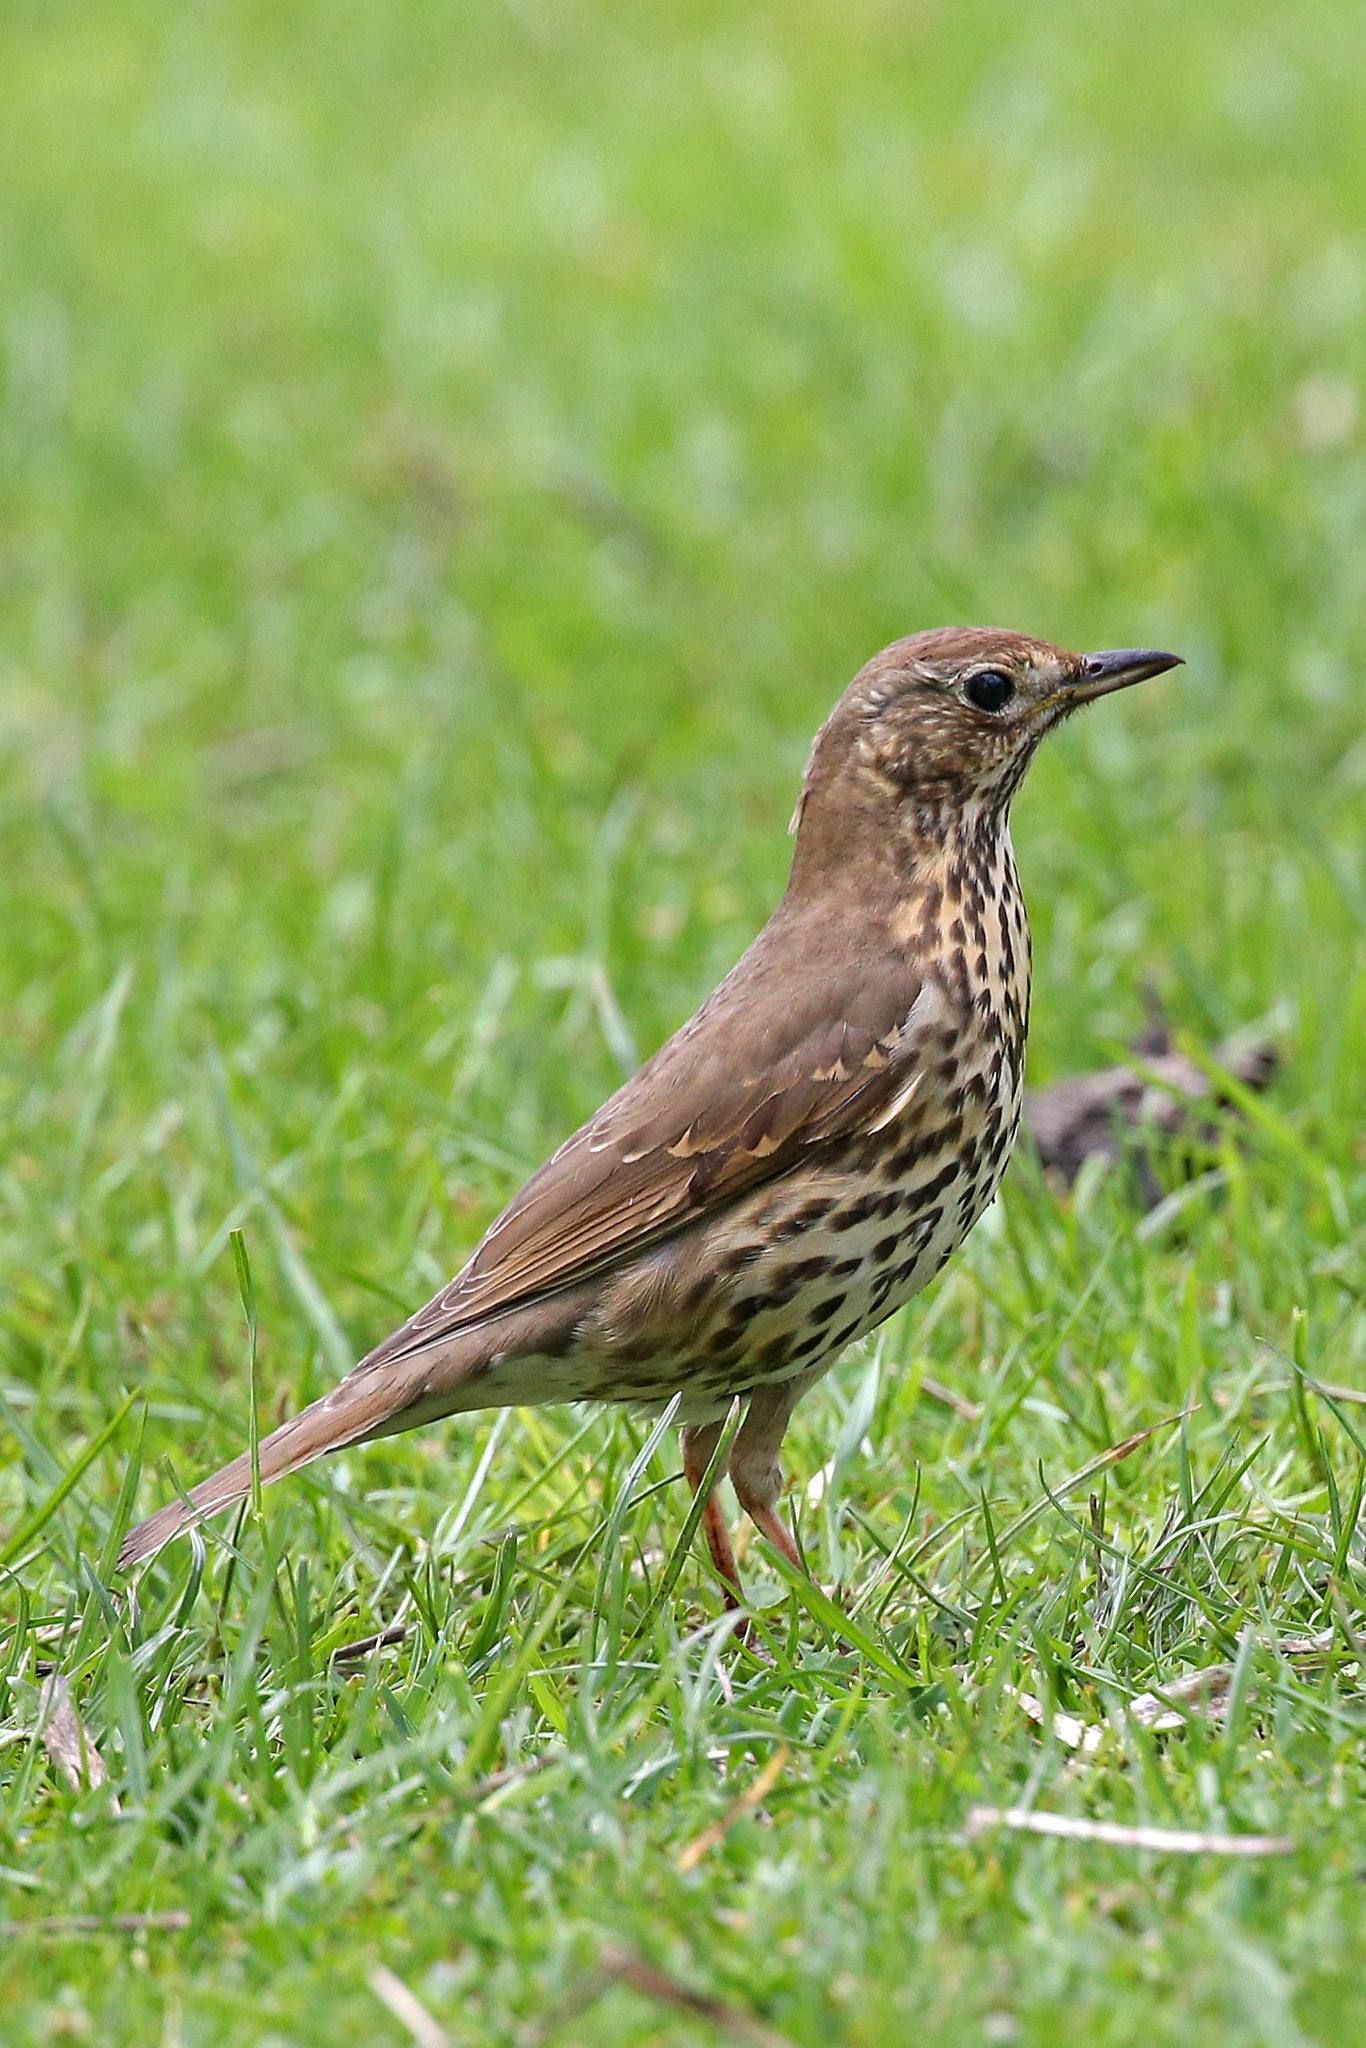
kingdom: Animalia
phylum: Chordata
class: Aves
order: Passeriformes
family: Turdidae
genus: Turdus
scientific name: Turdus philomelos
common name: Song thrush
